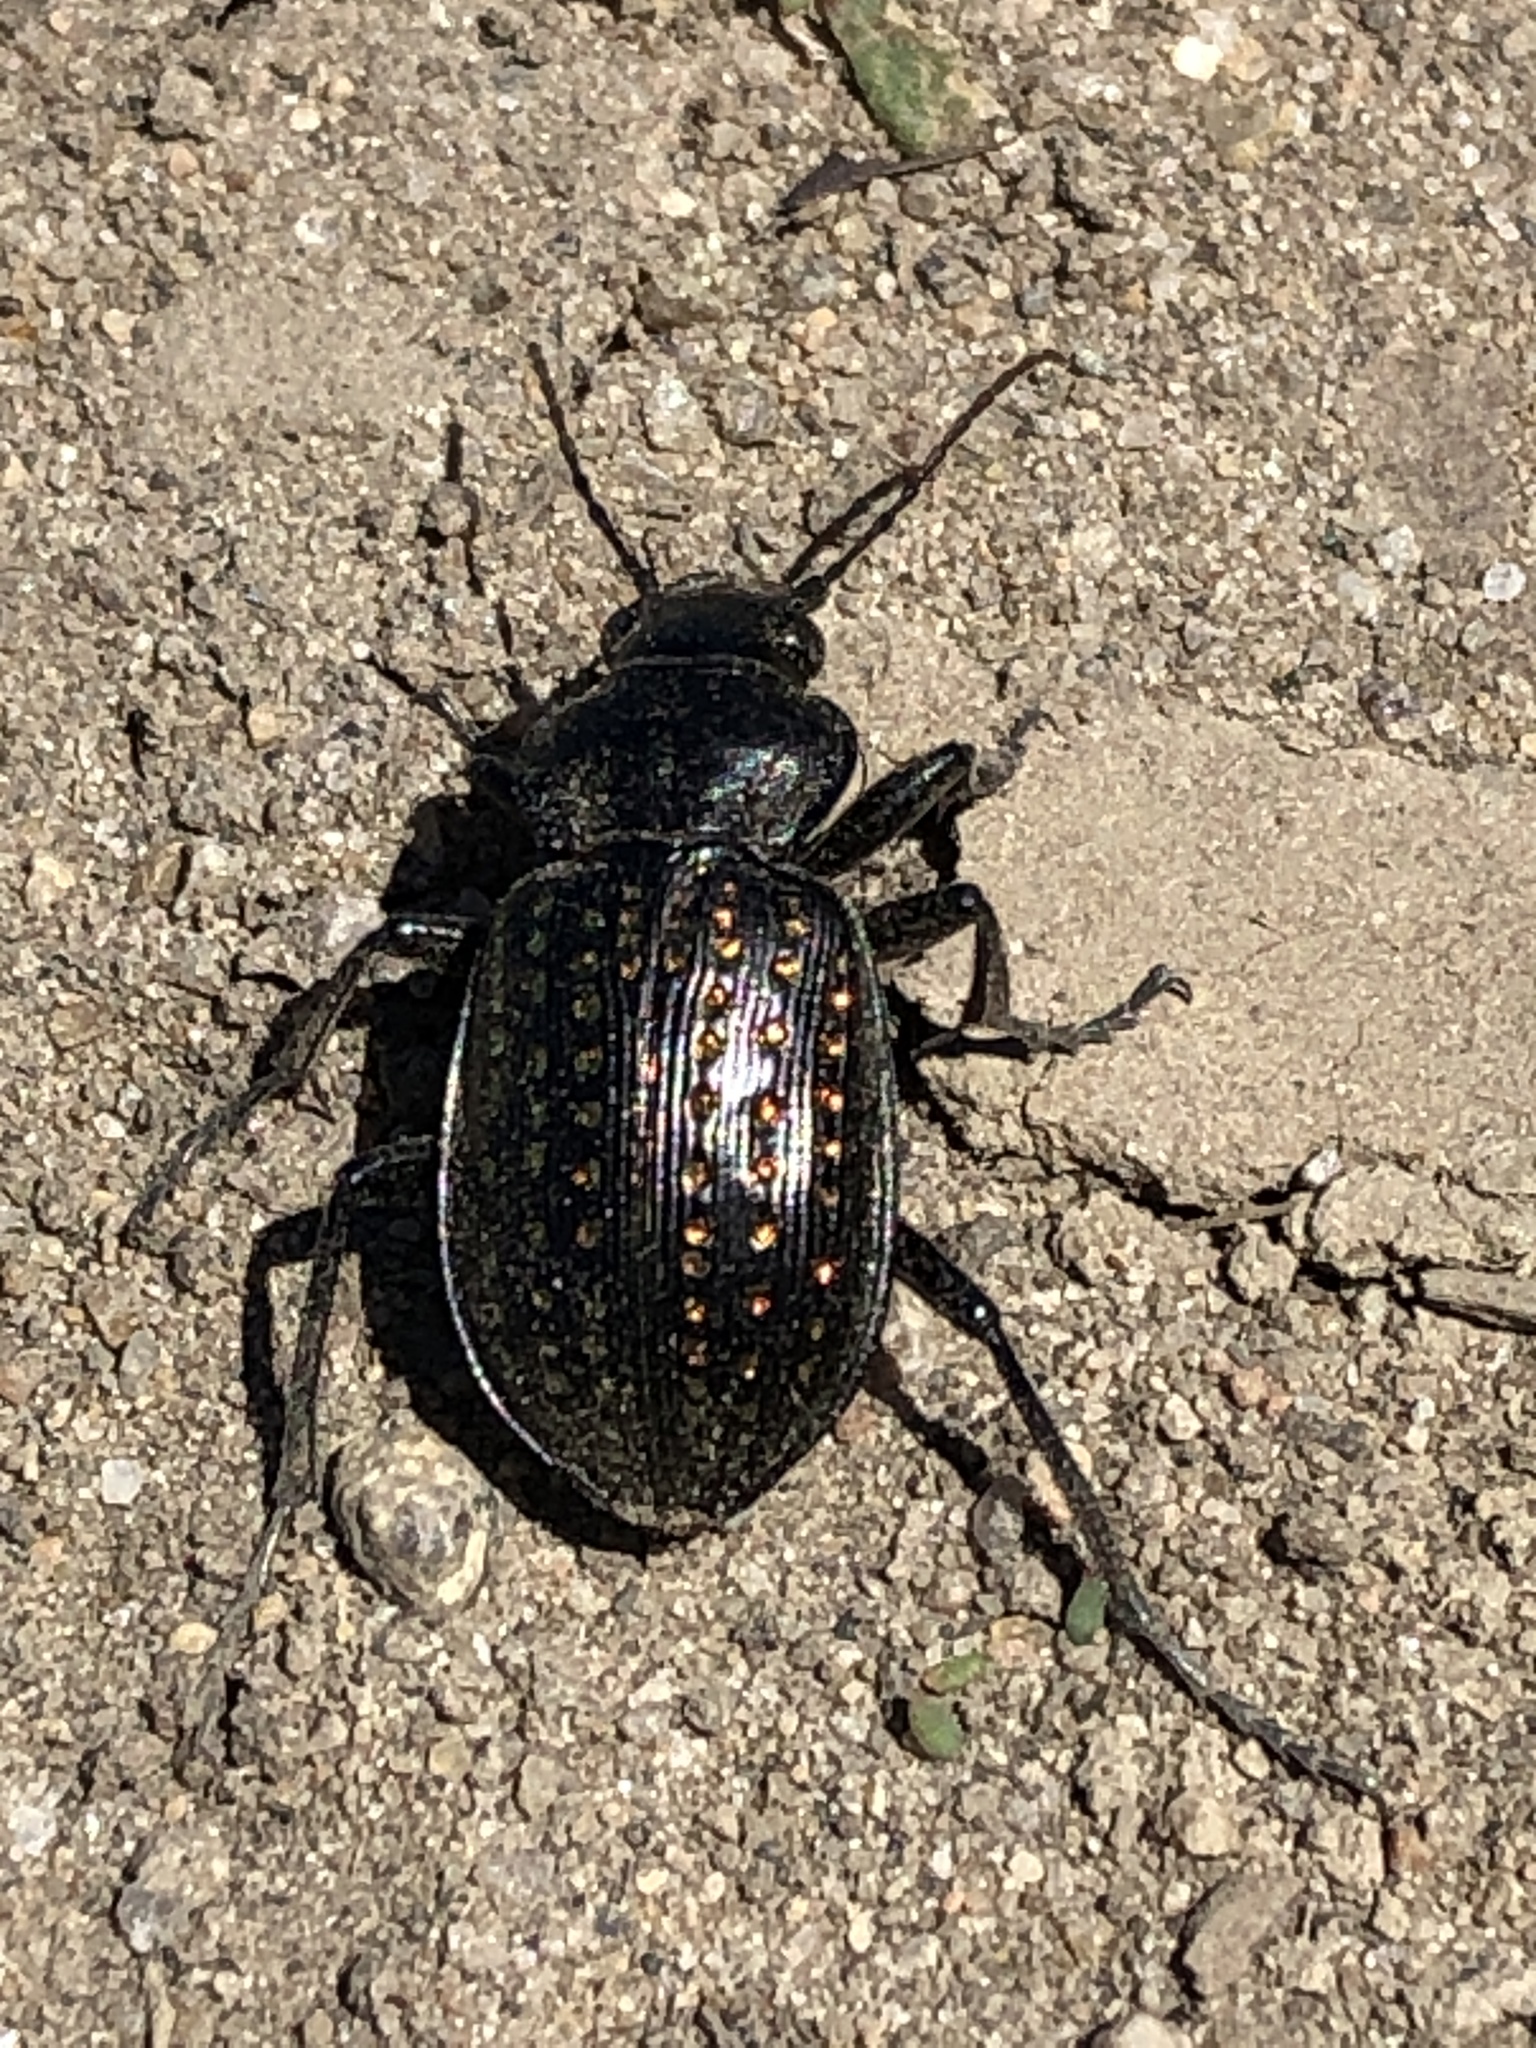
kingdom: Animalia
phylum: Arthropoda
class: Insecta
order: Coleoptera
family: Carabidae
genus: Calosoma
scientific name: Calosoma calidum
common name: Fiery hunter
